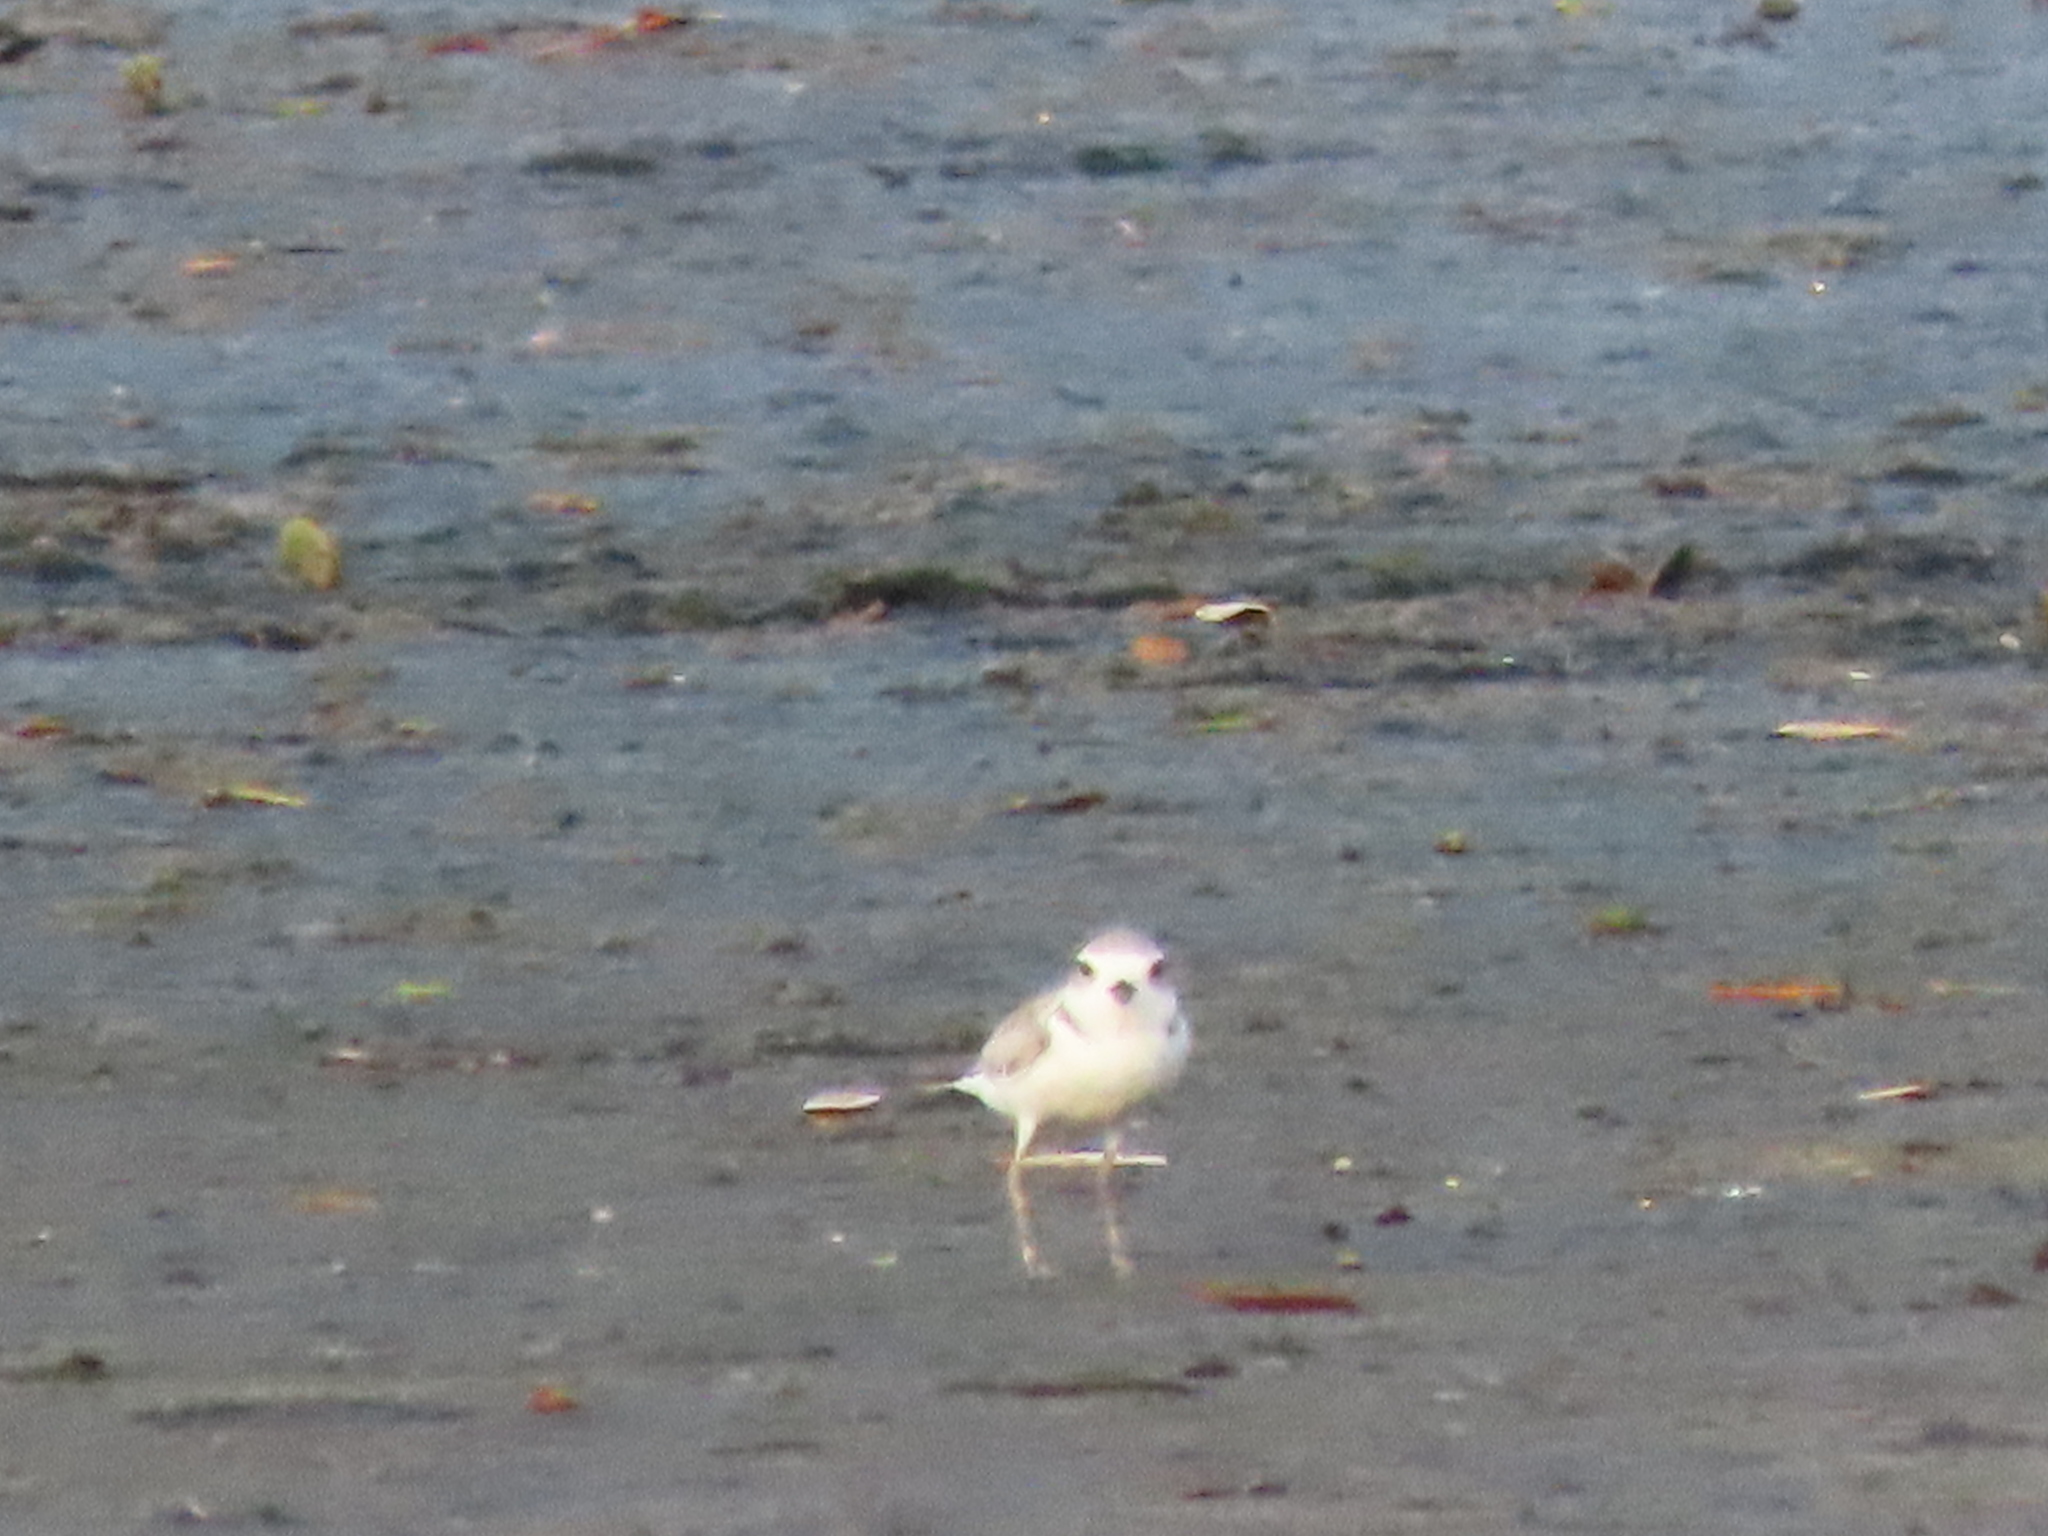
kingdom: Animalia
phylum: Chordata
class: Aves
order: Charadriiformes
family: Charadriidae
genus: Anarhynchus
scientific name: Anarhynchus
